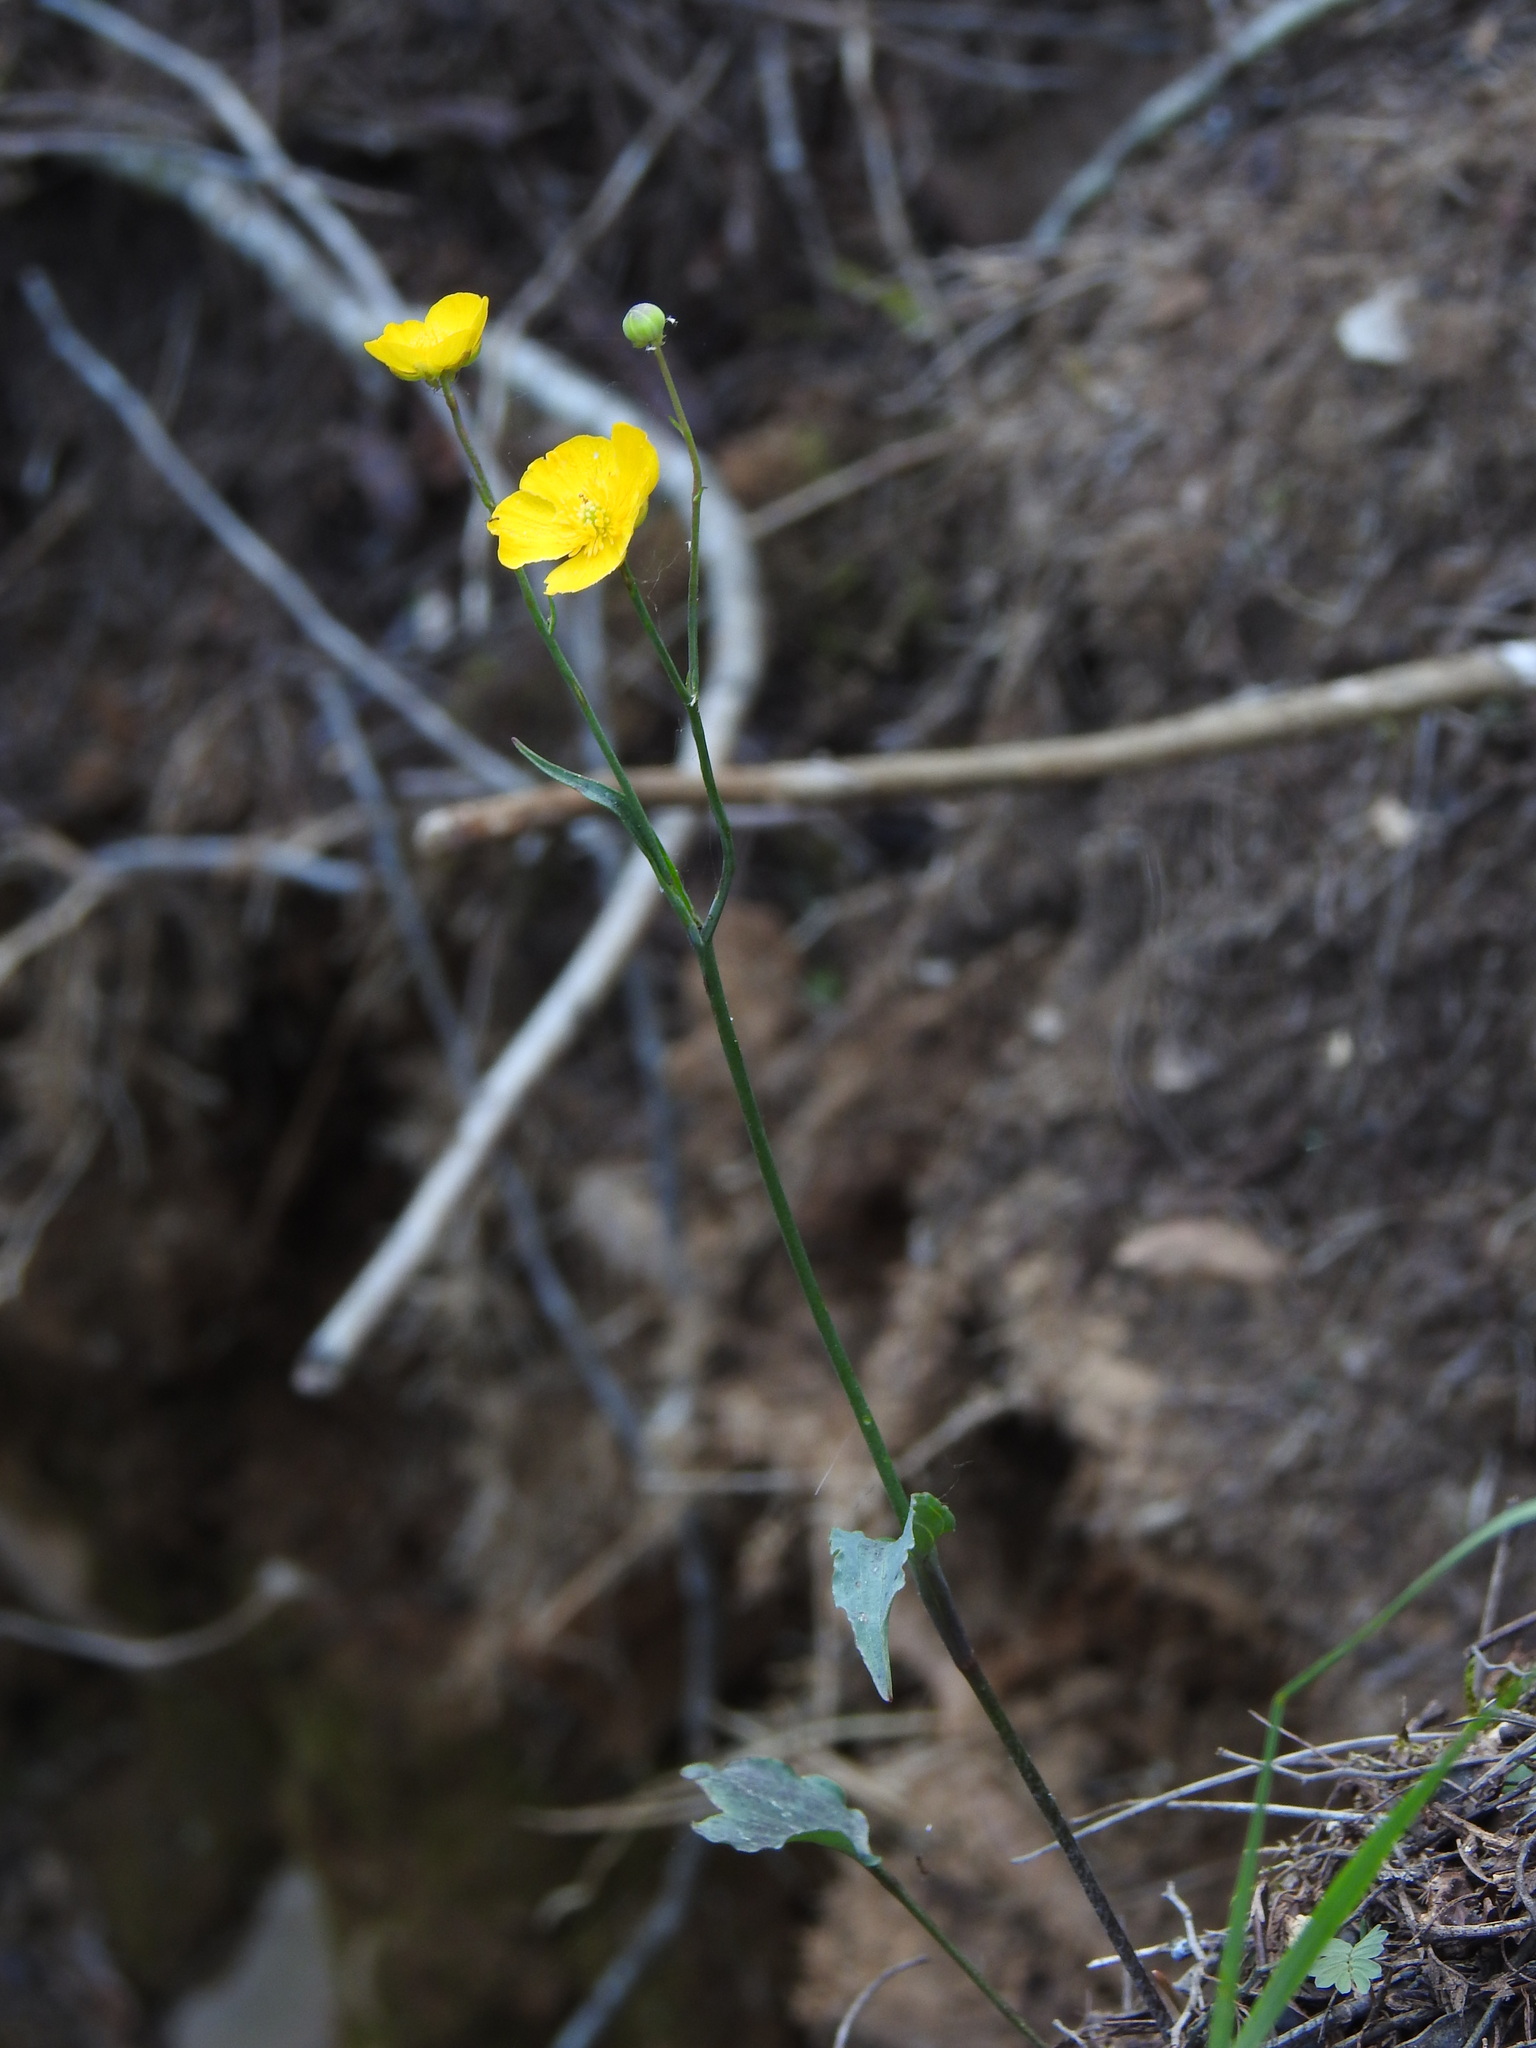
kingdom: Plantae
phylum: Tracheophyta
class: Magnoliopsida
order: Ranunculales
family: Ranunculaceae
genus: Ranunculus
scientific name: Ranunculus bupleuroides
